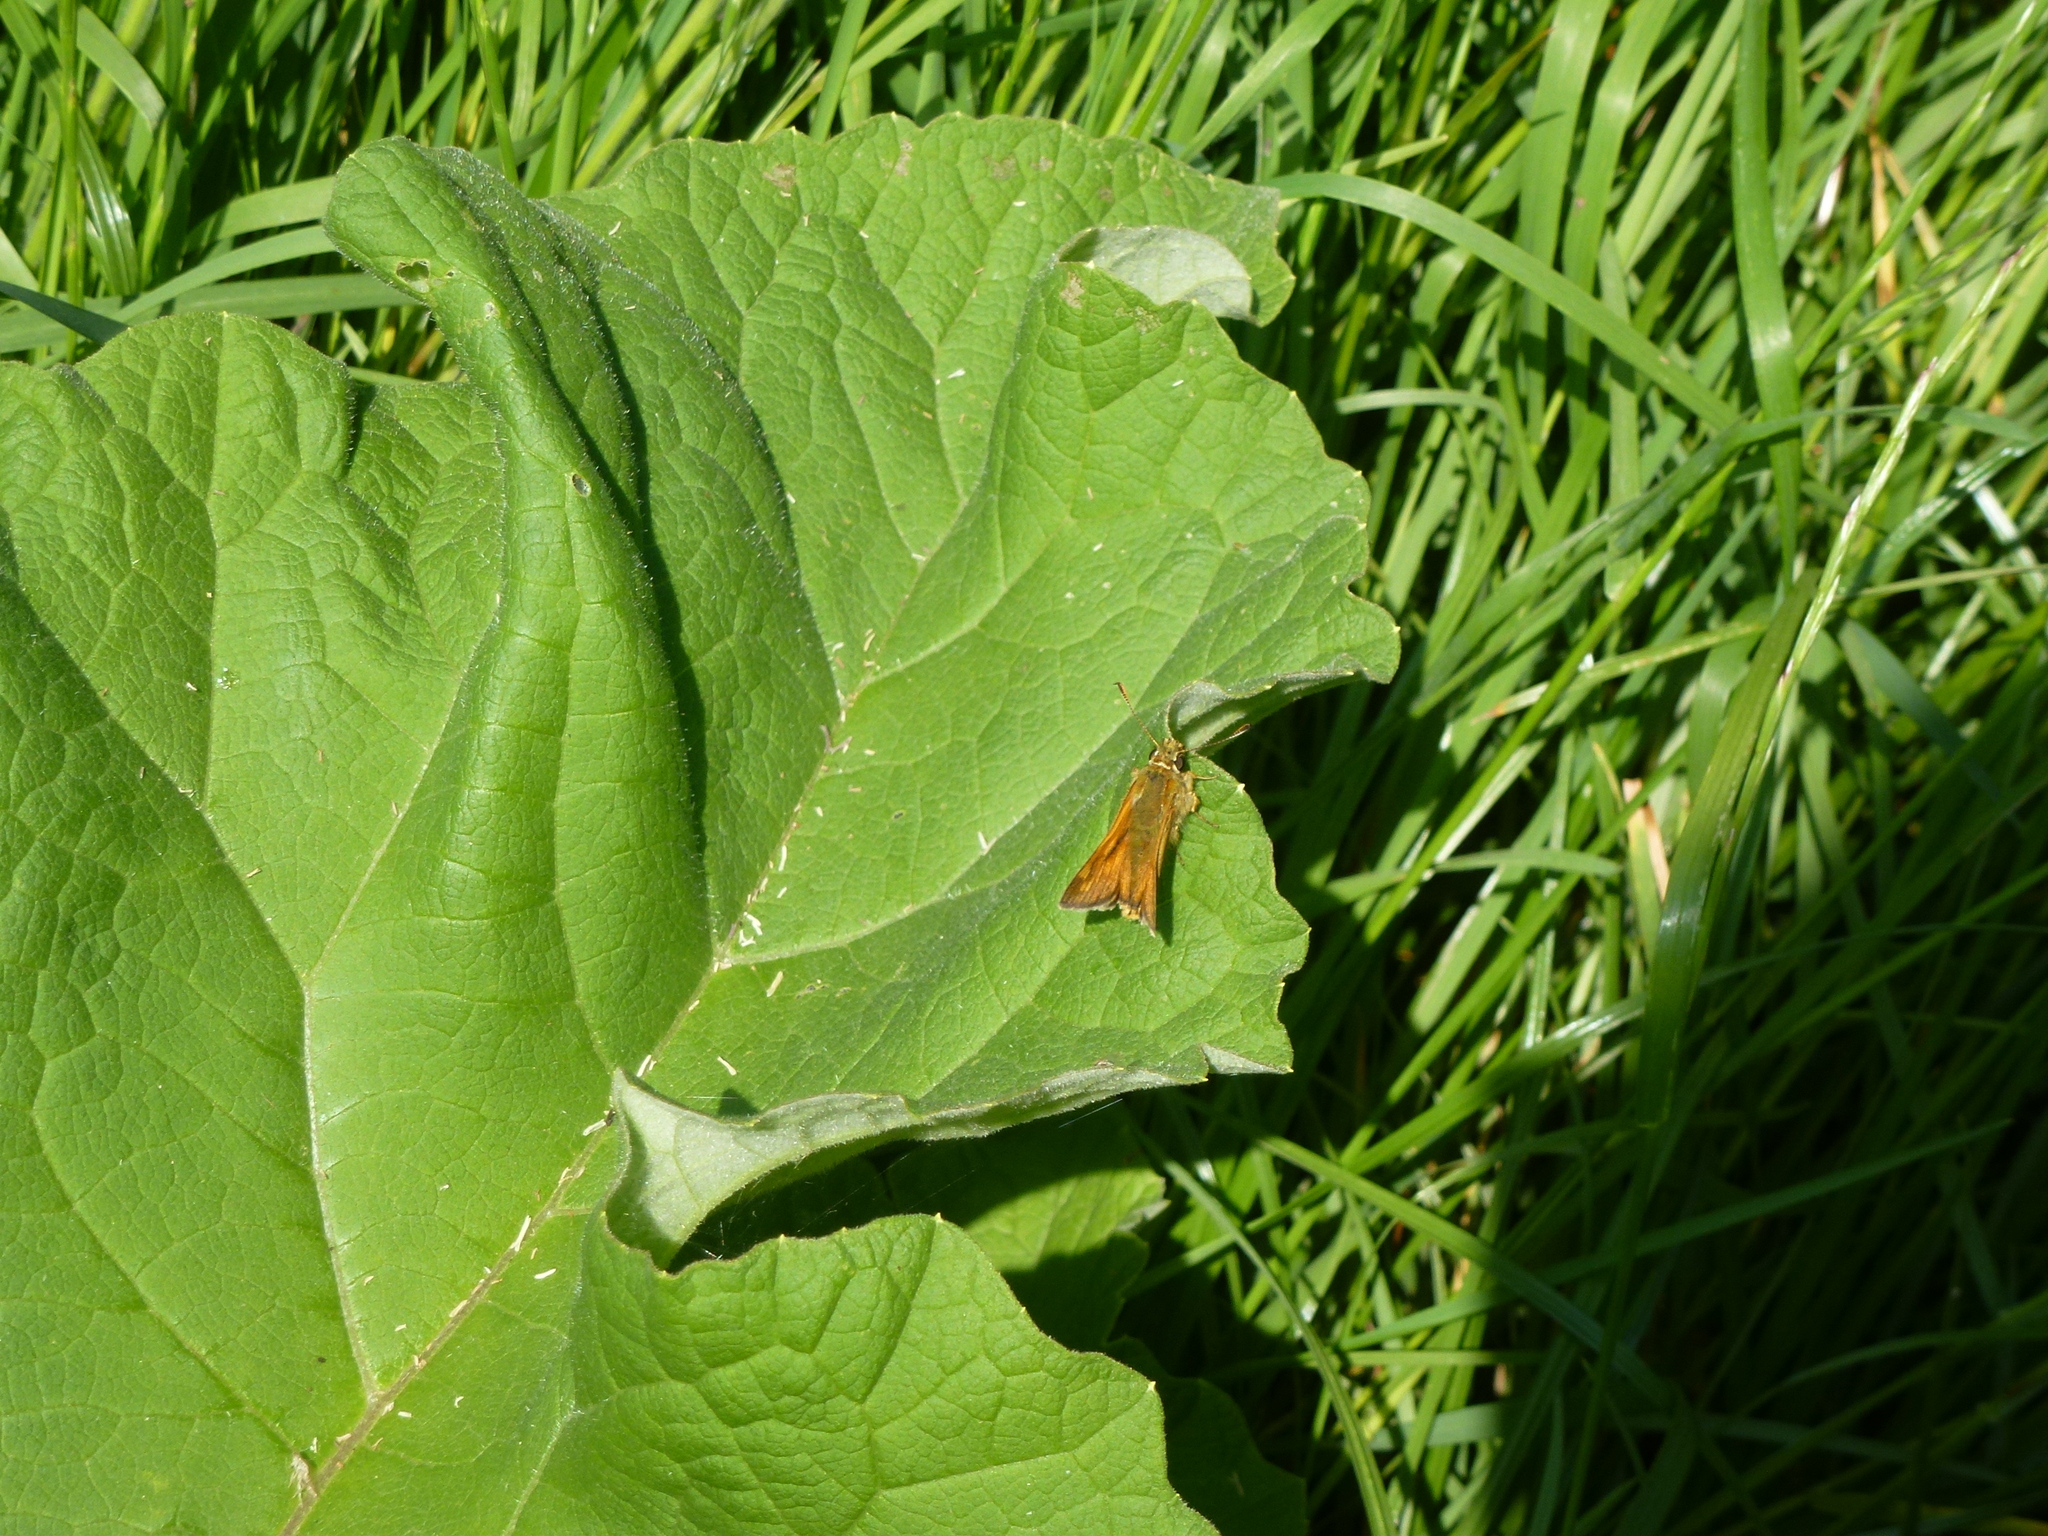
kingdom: Animalia
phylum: Arthropoda
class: Insecta
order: Lepidoptera
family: Hesperiidae
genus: Ochlodes
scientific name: Ochlodes venata
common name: Large skipper
